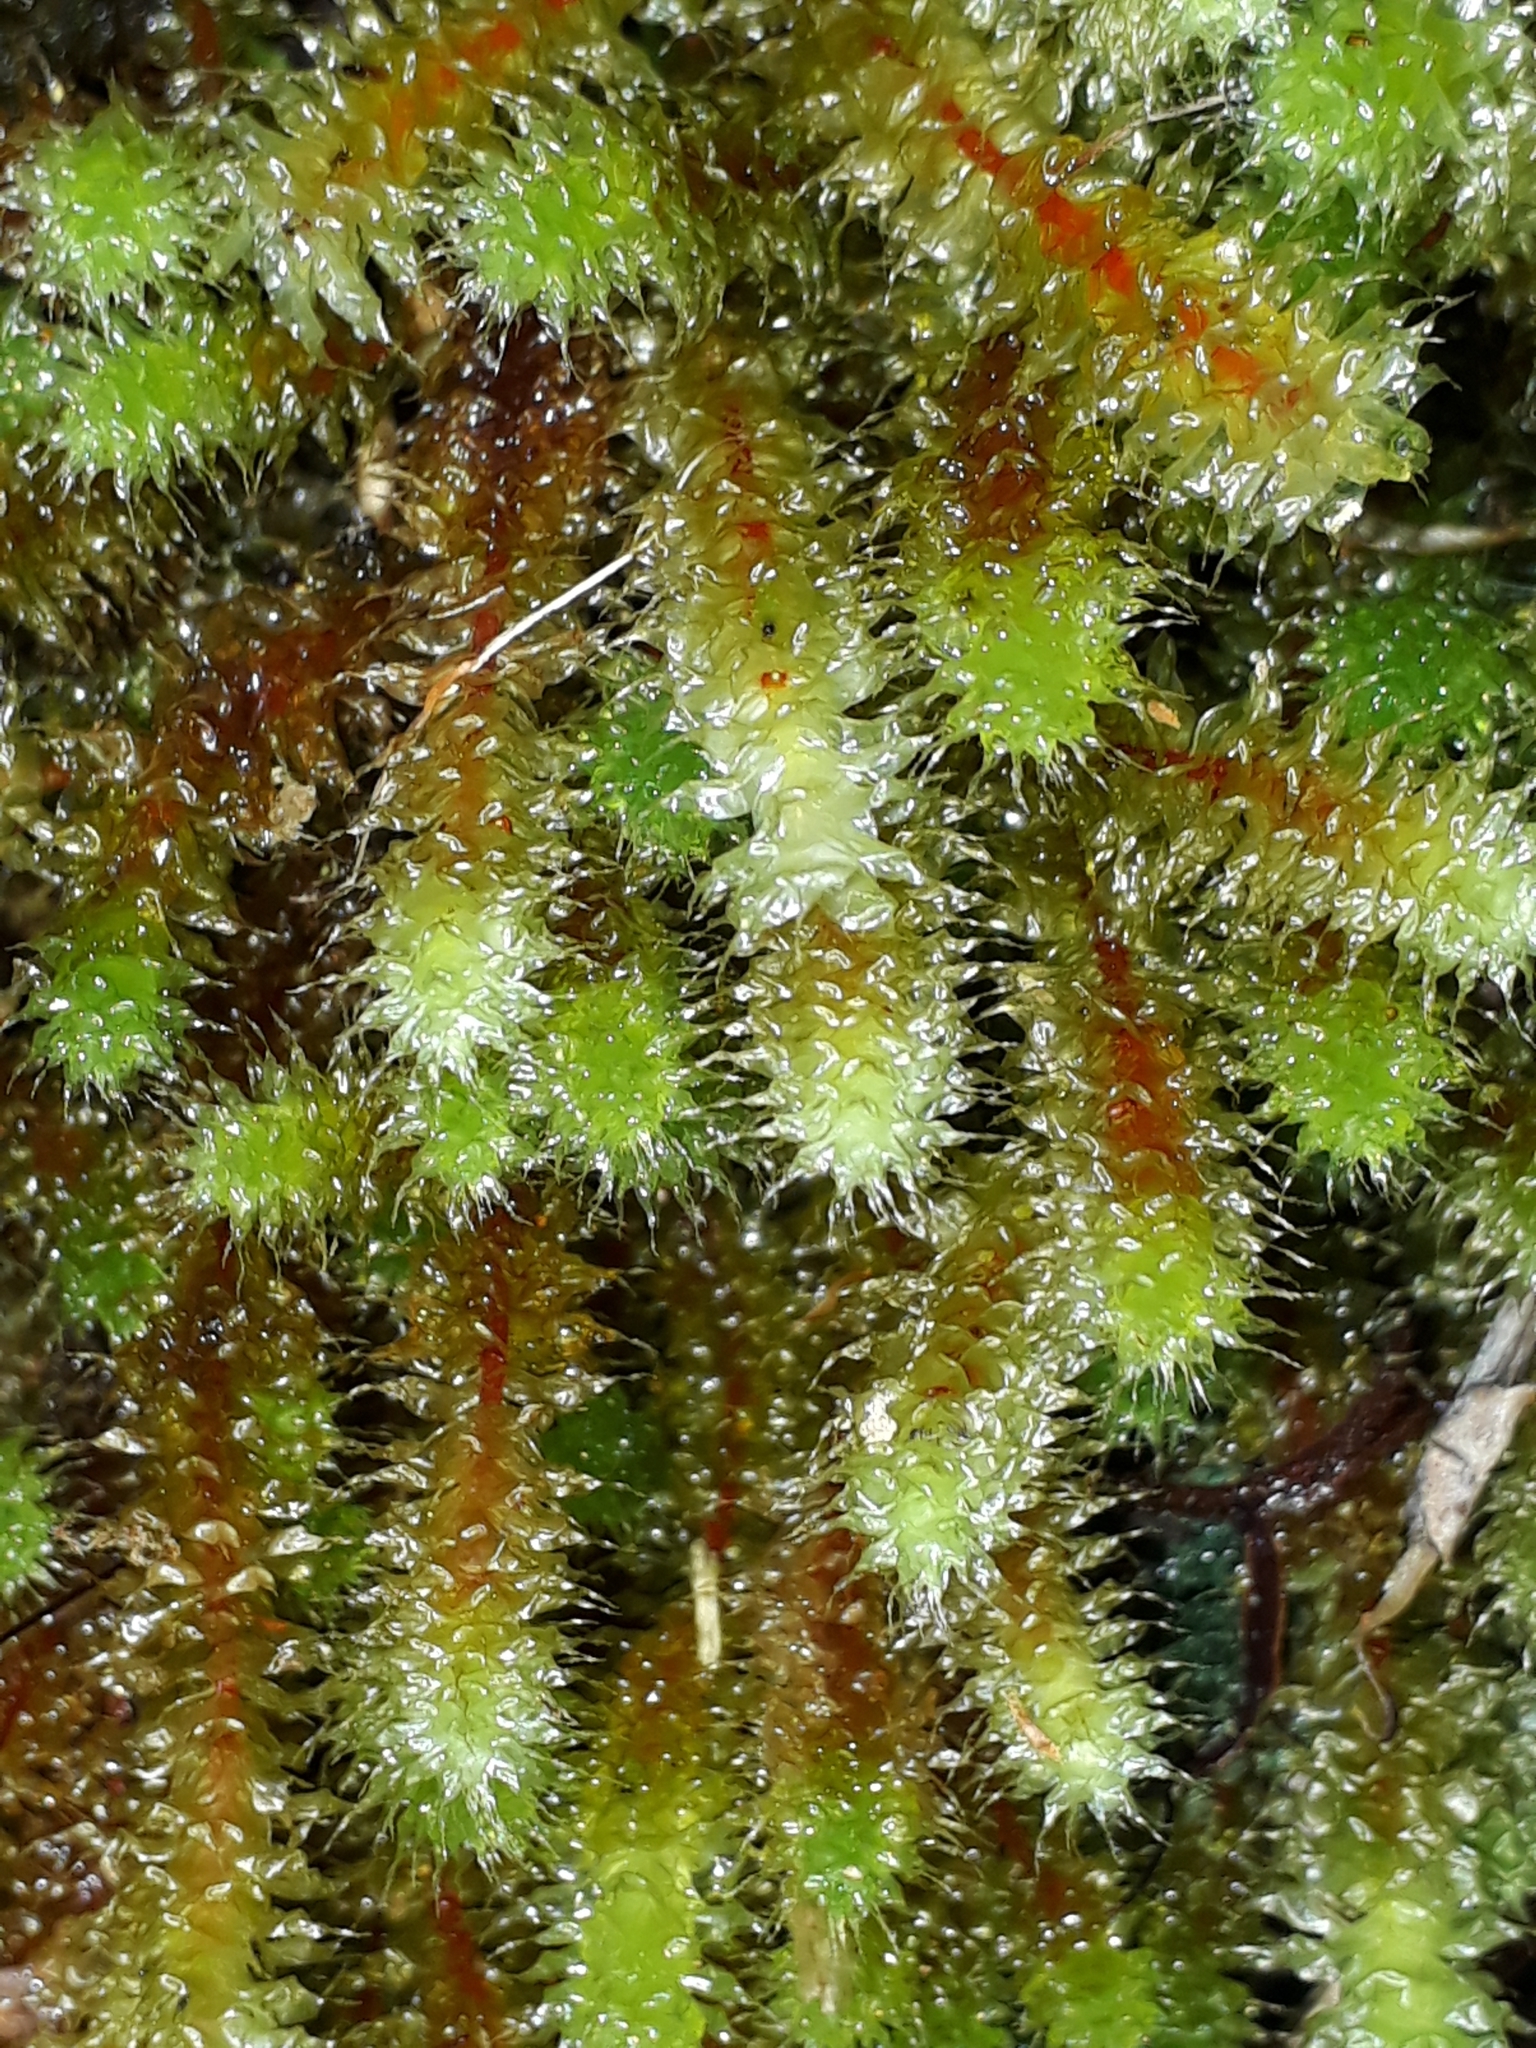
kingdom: Plantae
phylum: Bryophyta
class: Bryopsida
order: Ptychomniales
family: Ptychomniaceae
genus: Ptychomnion
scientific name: Ptychomnion aciculare
